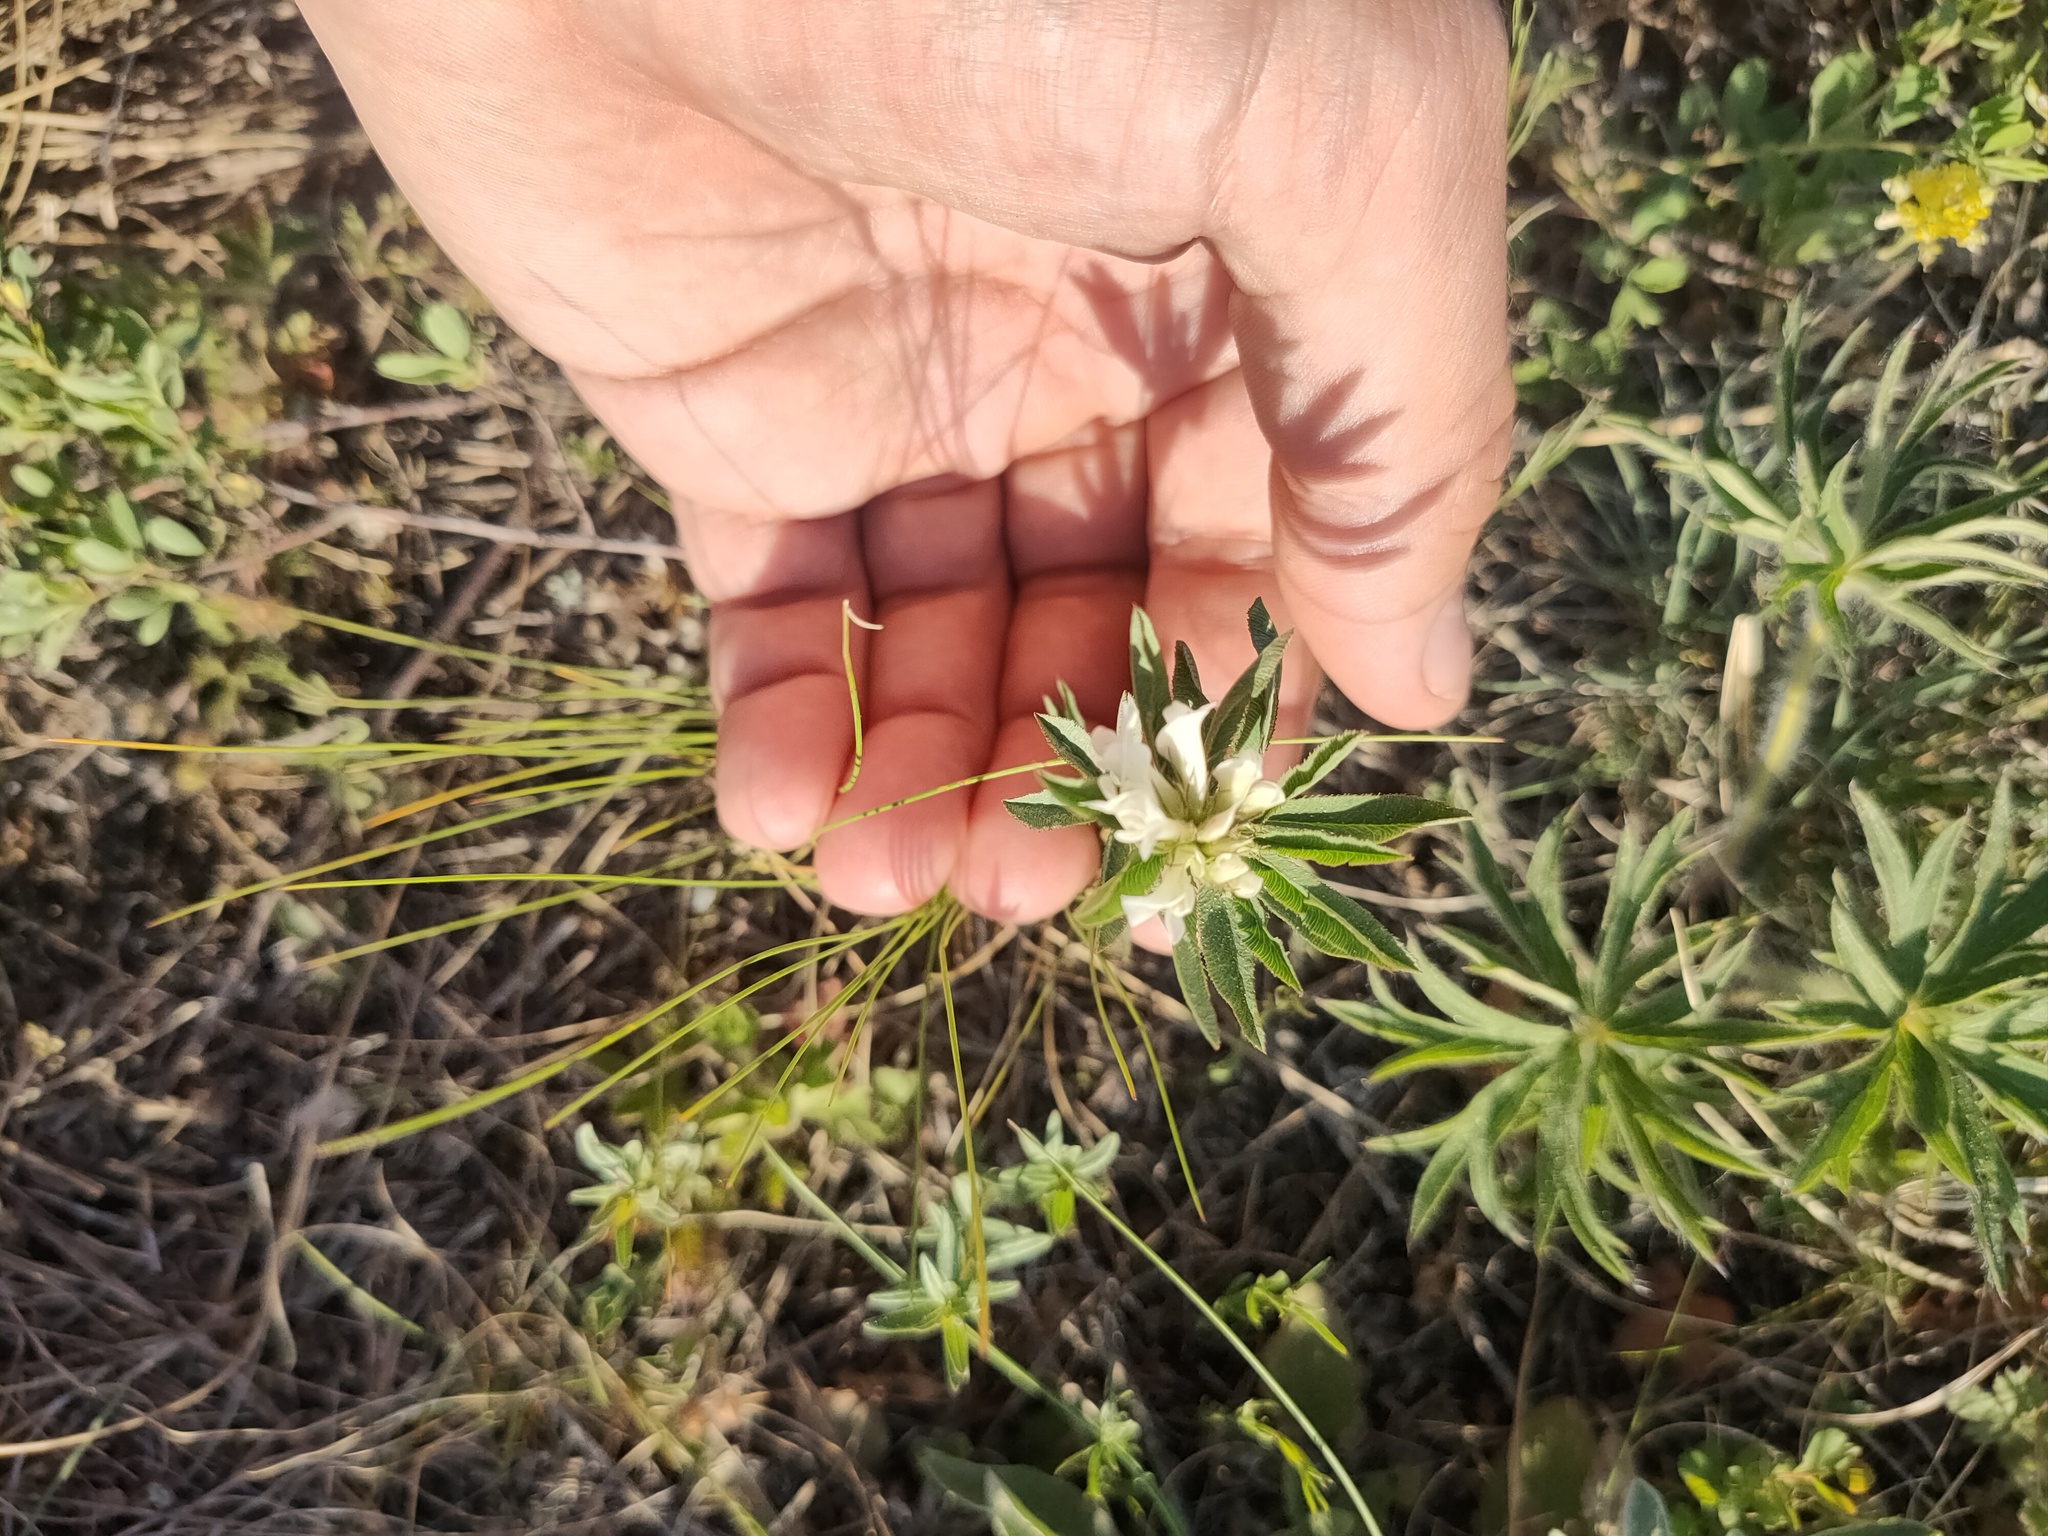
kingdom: Plantae
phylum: Tracheophyta
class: Magnoliopsida
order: Fabales
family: Fabaceae
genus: Trifolium
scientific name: Trifolium lupinaster
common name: Lupine clover
